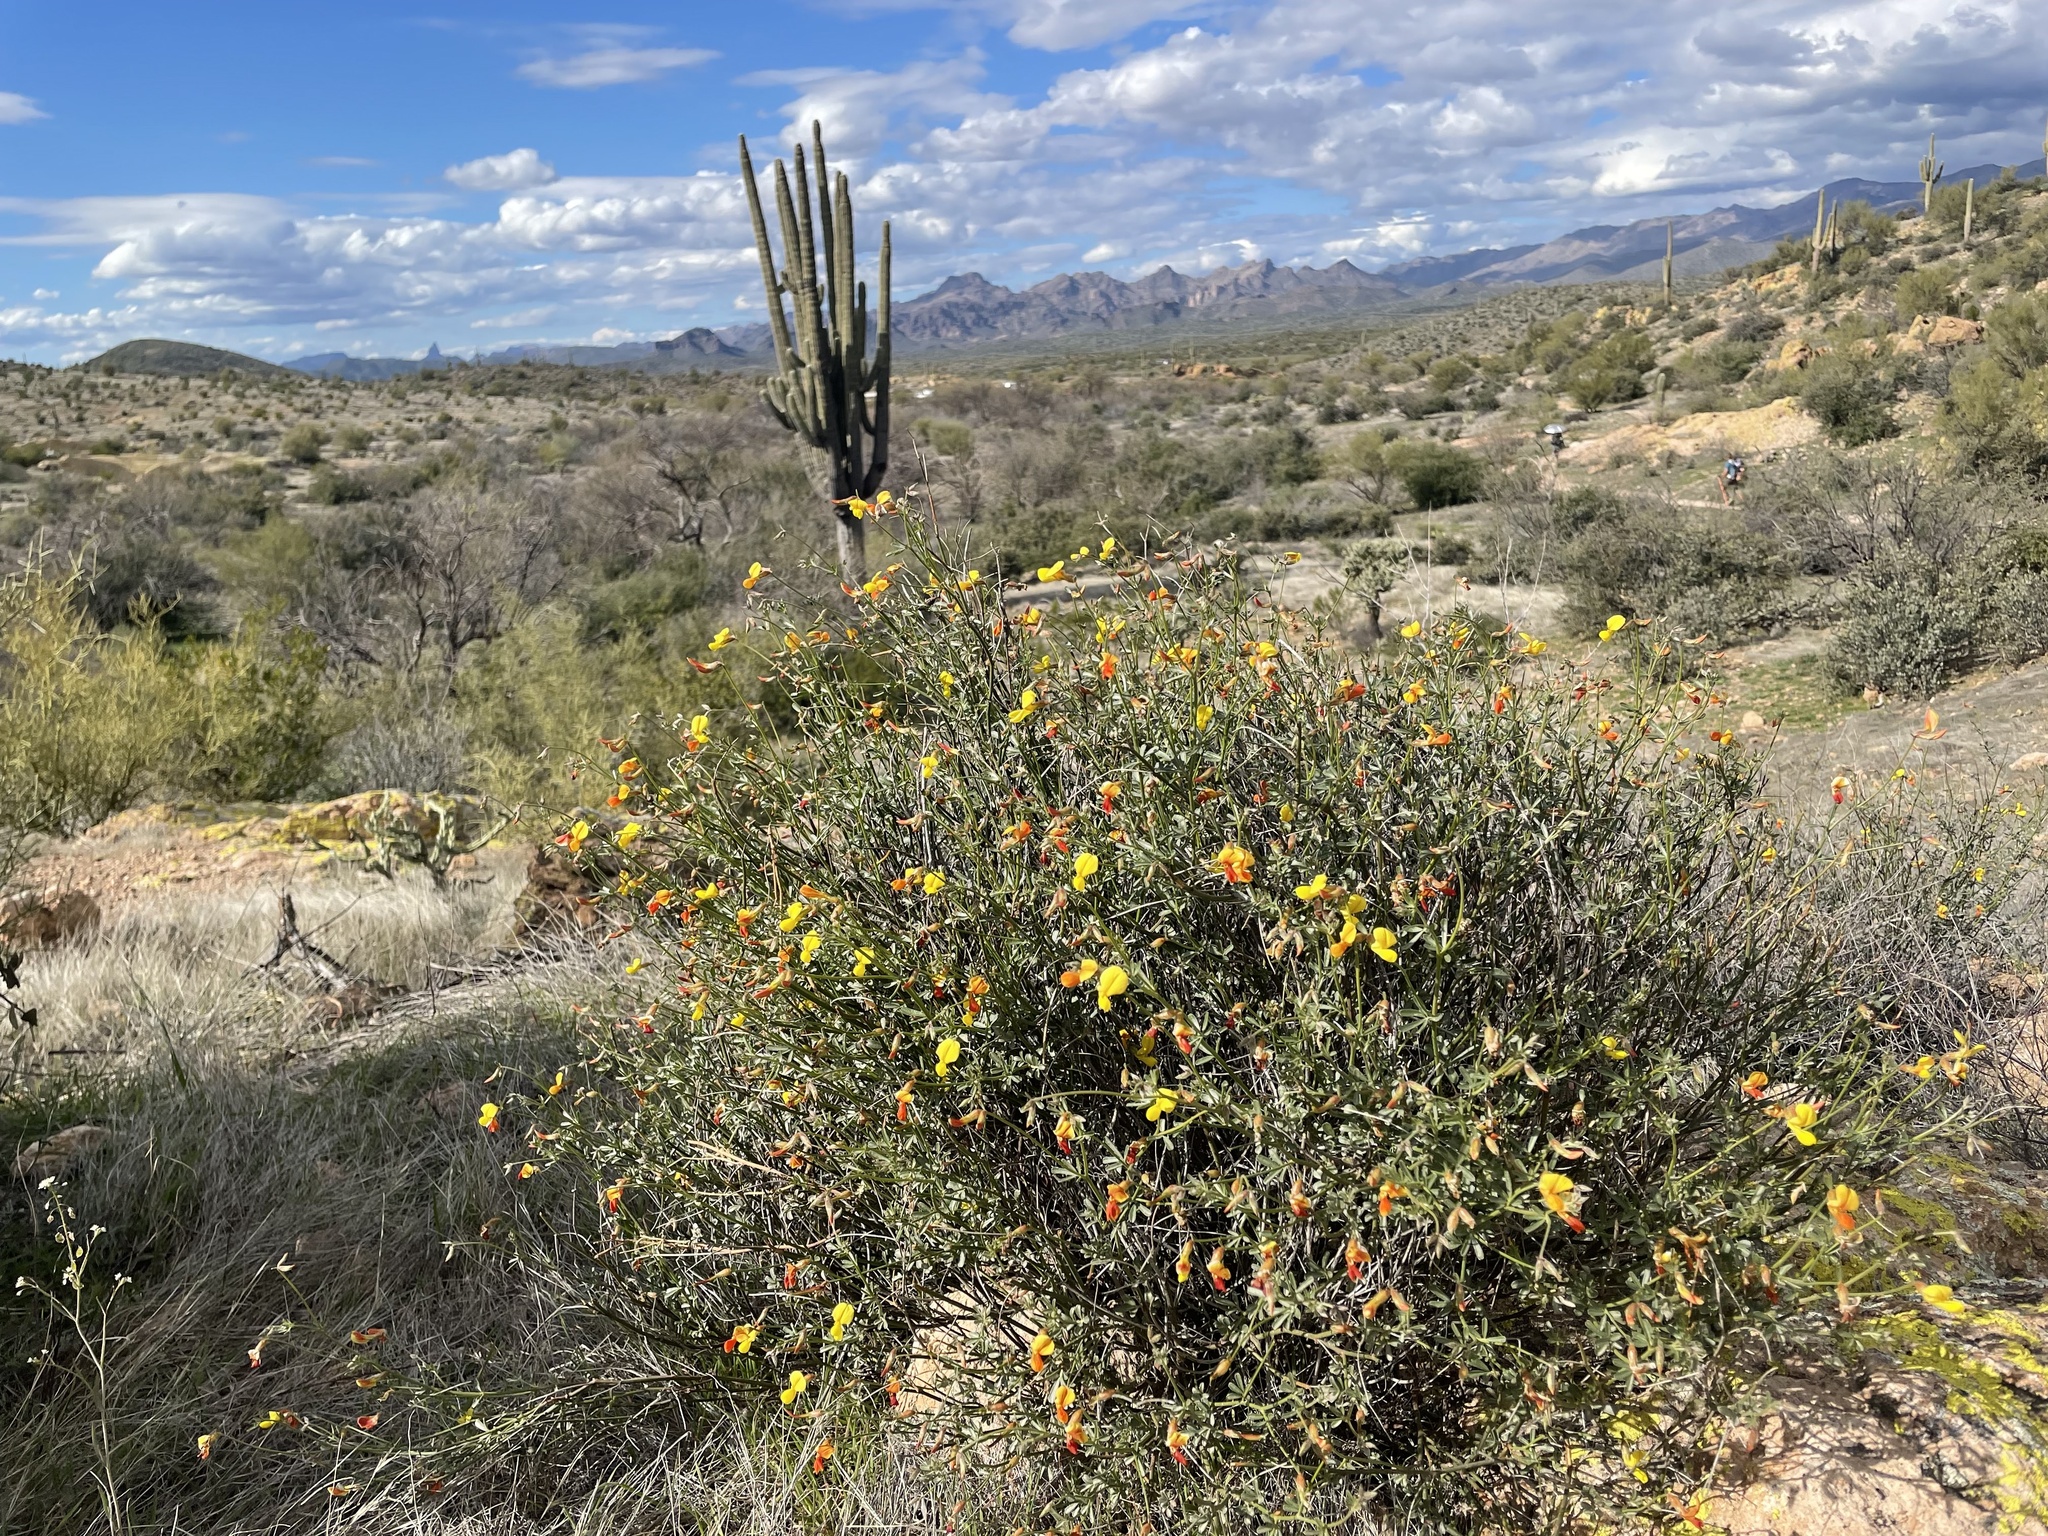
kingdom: Plantae
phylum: Tracheophyta
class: Magnoliopsida
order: Fabales
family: Fabaceae
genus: Acmispon
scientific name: Acmispon rigidus
